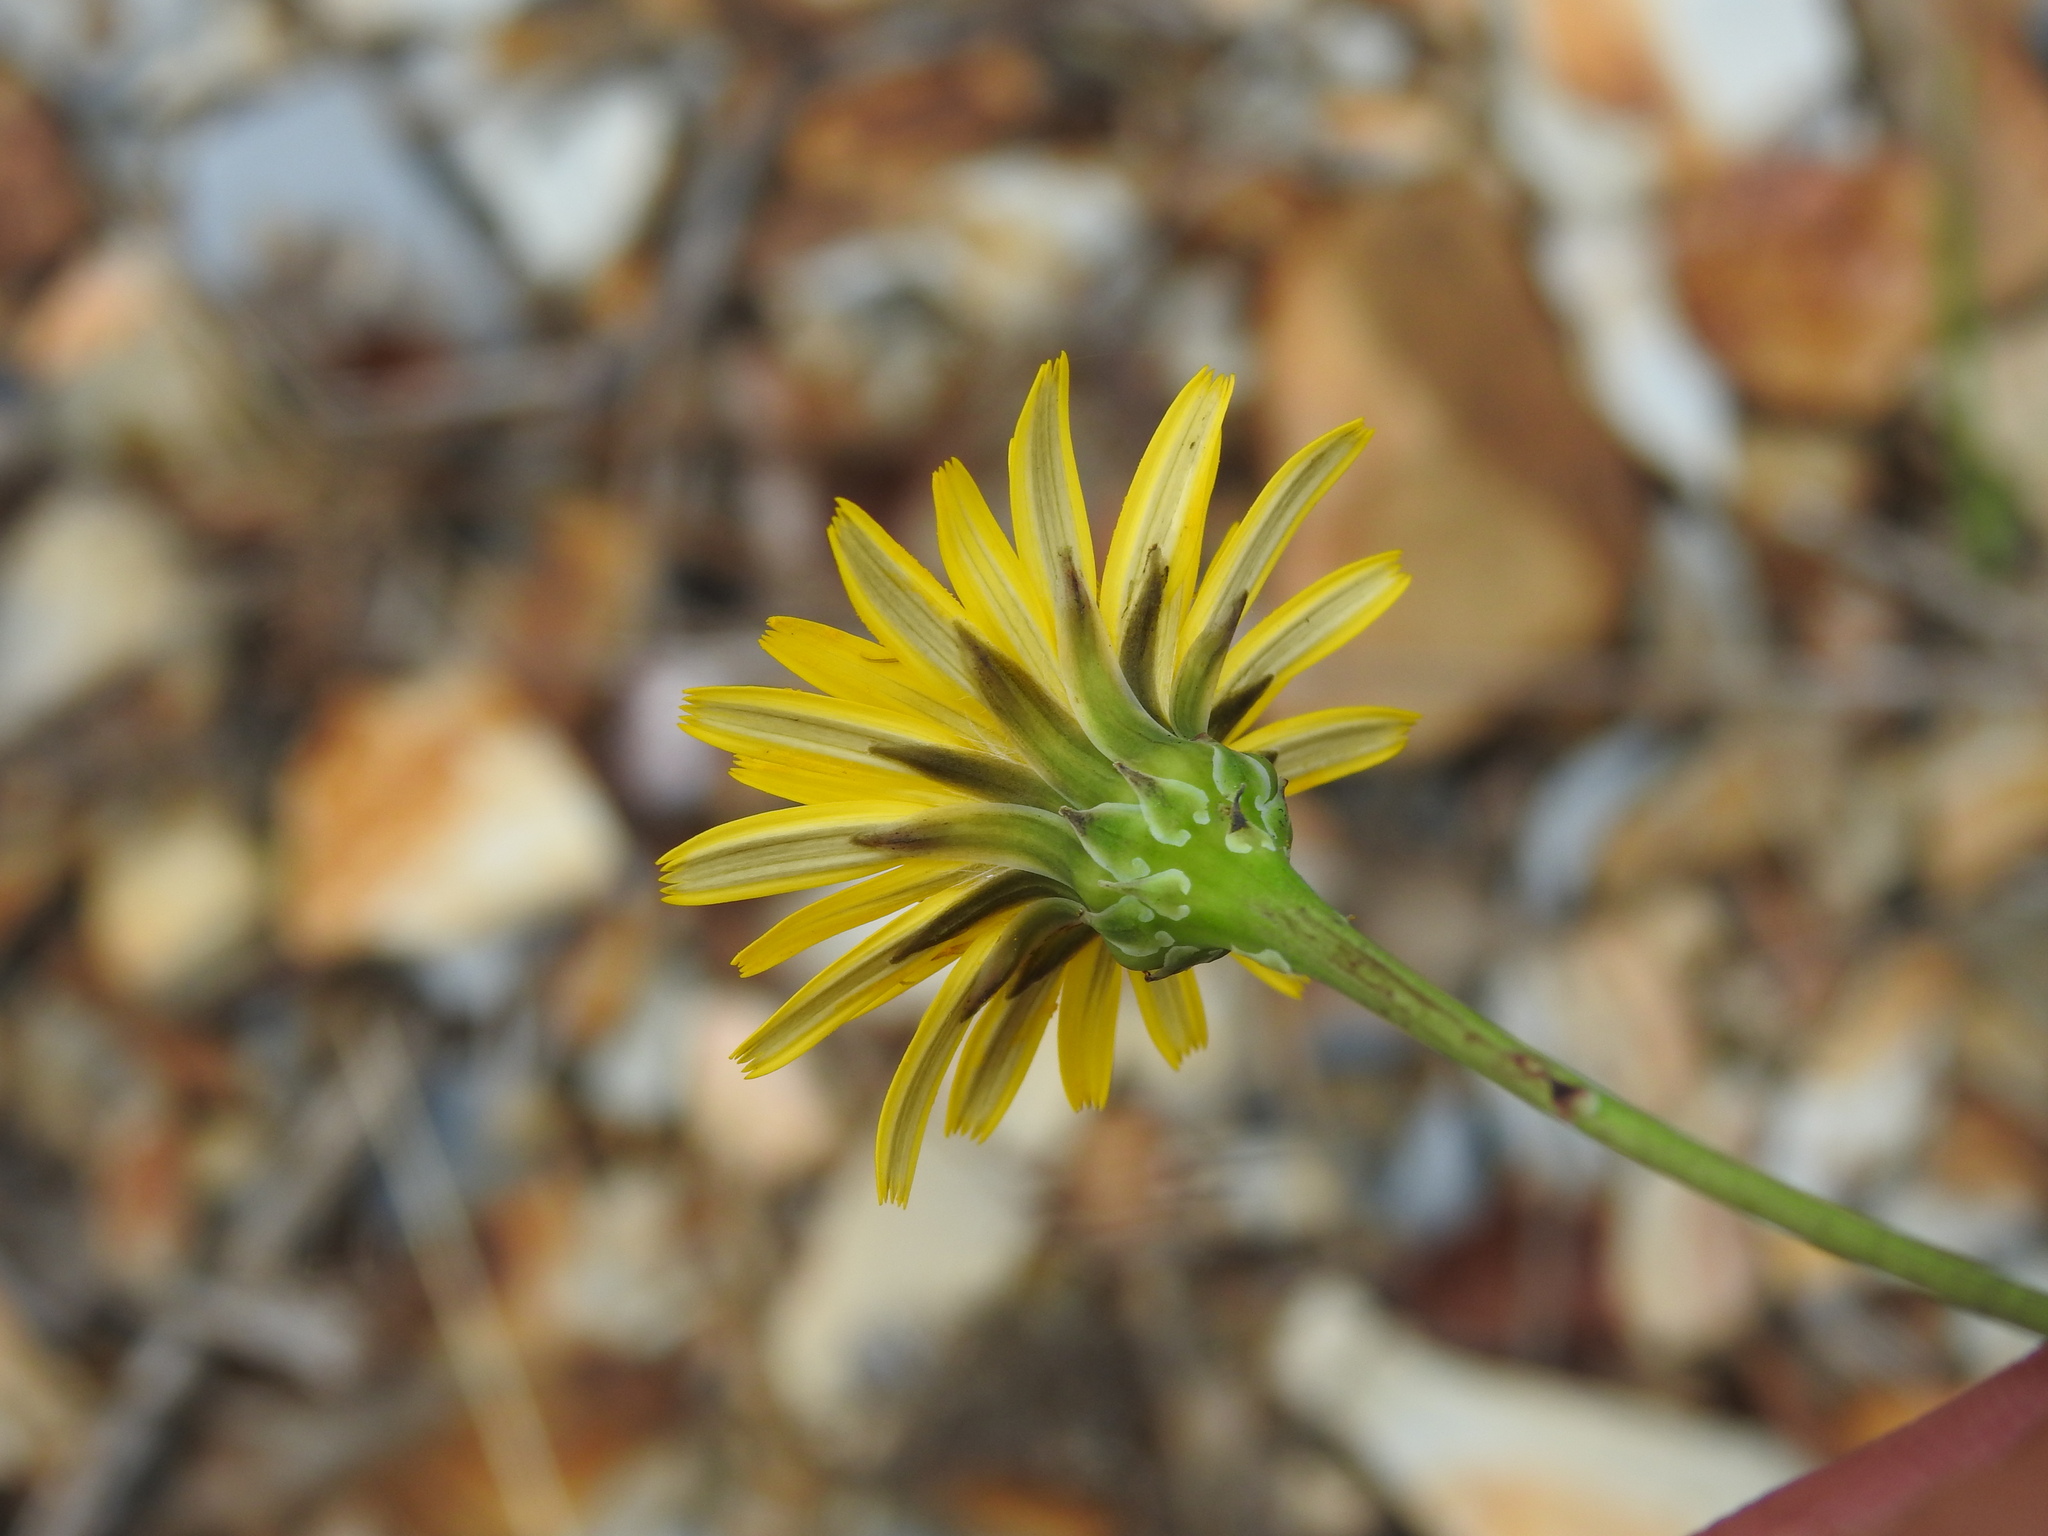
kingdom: Plantae
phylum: Tracheophyta
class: Magnoliopsida
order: Asterales
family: Asteraceae
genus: Reichardia
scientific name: Reichardia picroides
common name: Common brighteyes
